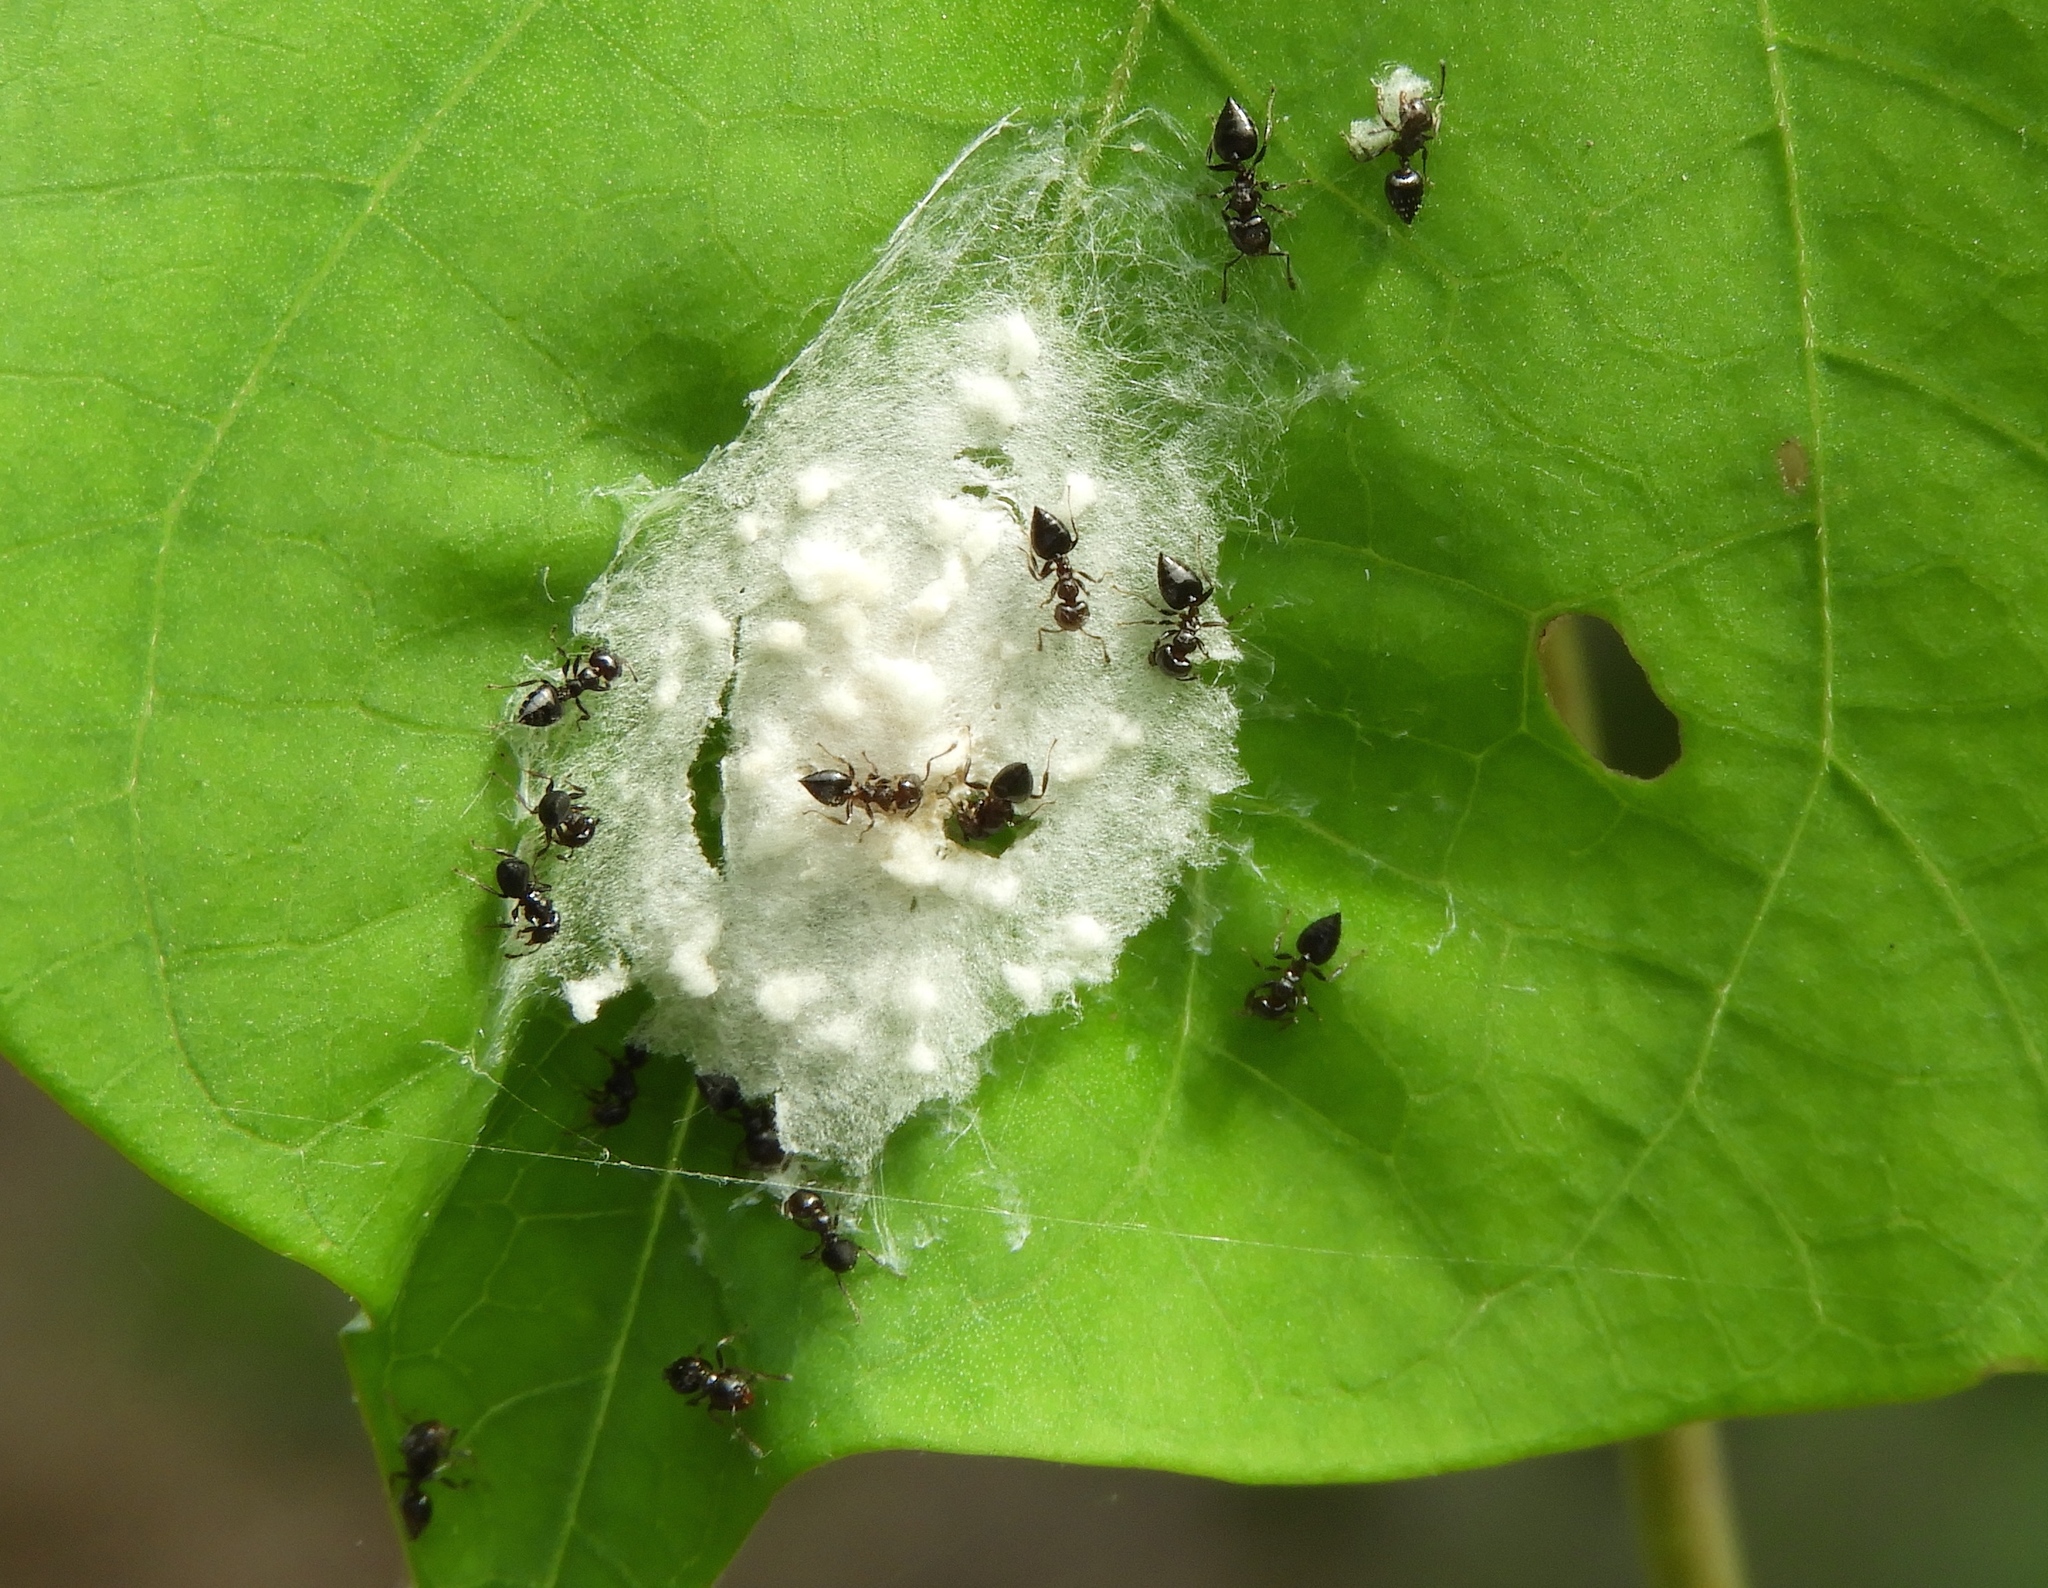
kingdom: Animalia
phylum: Arthropoda
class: Insecta
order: Hymenoptera
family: Formicidae
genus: Crematogaster
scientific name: Crematogaster
